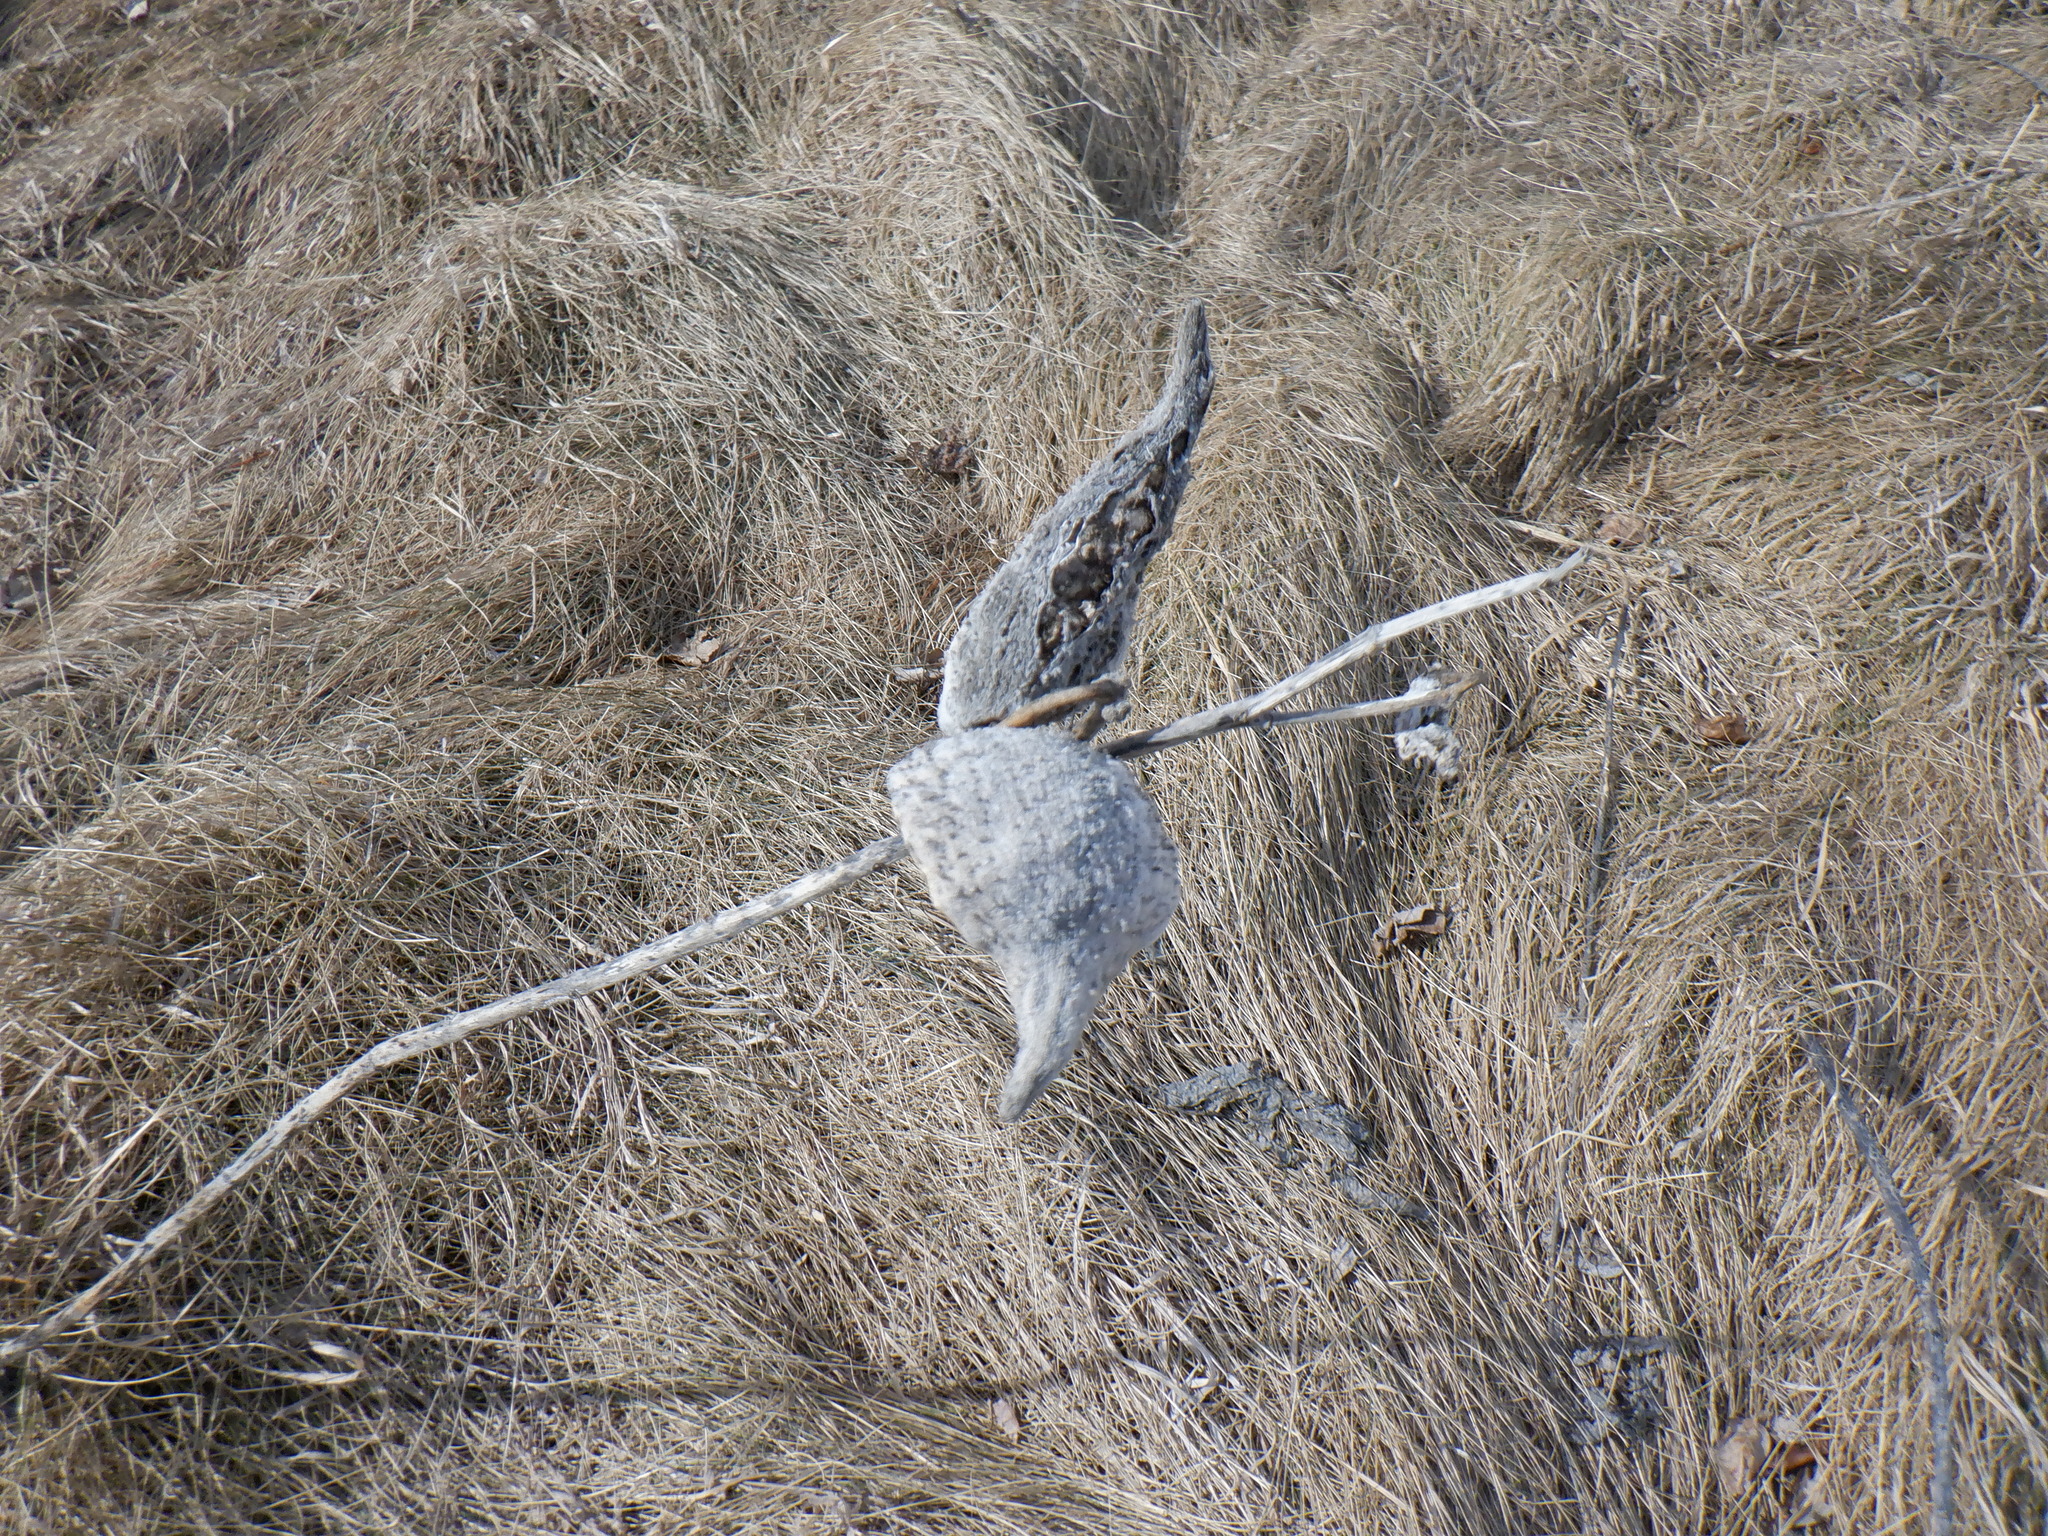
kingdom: Plantae
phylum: Tracheophyta
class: Magnoliopsida
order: Gentianales
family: Apocynaceae
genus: Asclepias
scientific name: Asclepias syriaca
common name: Common milkweed
